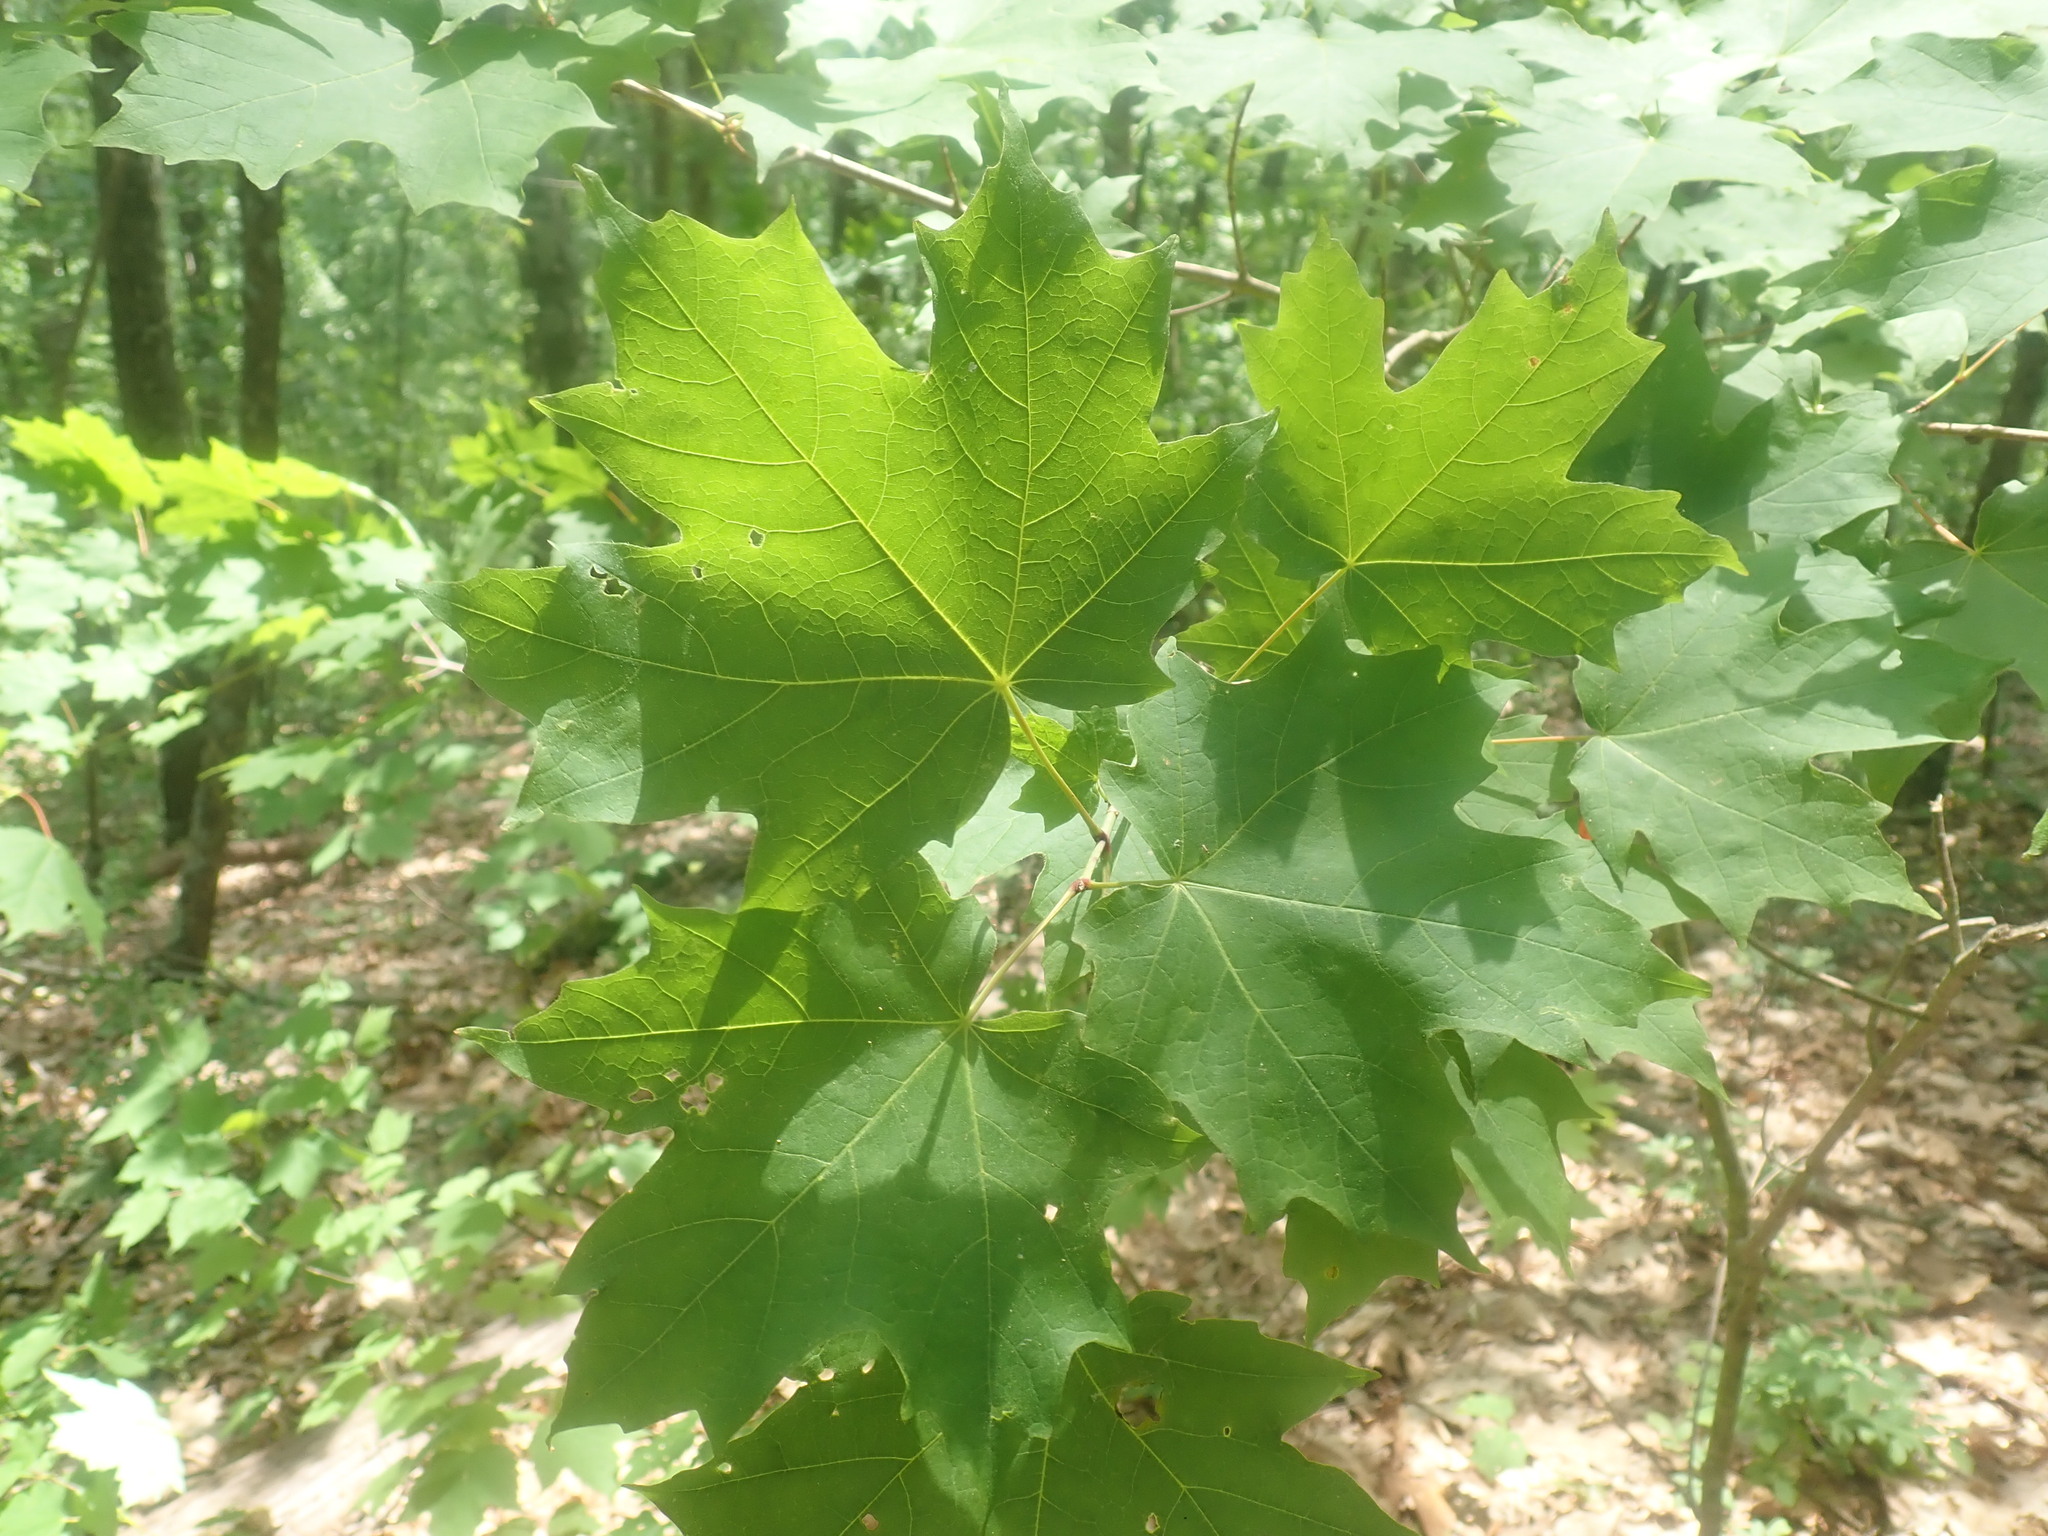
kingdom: Plantae
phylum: Tracheophyta
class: Magnoliopsida
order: Sapindales
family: Sapindaceae
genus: Acer
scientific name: Acer saccharum
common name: Sugar maple
